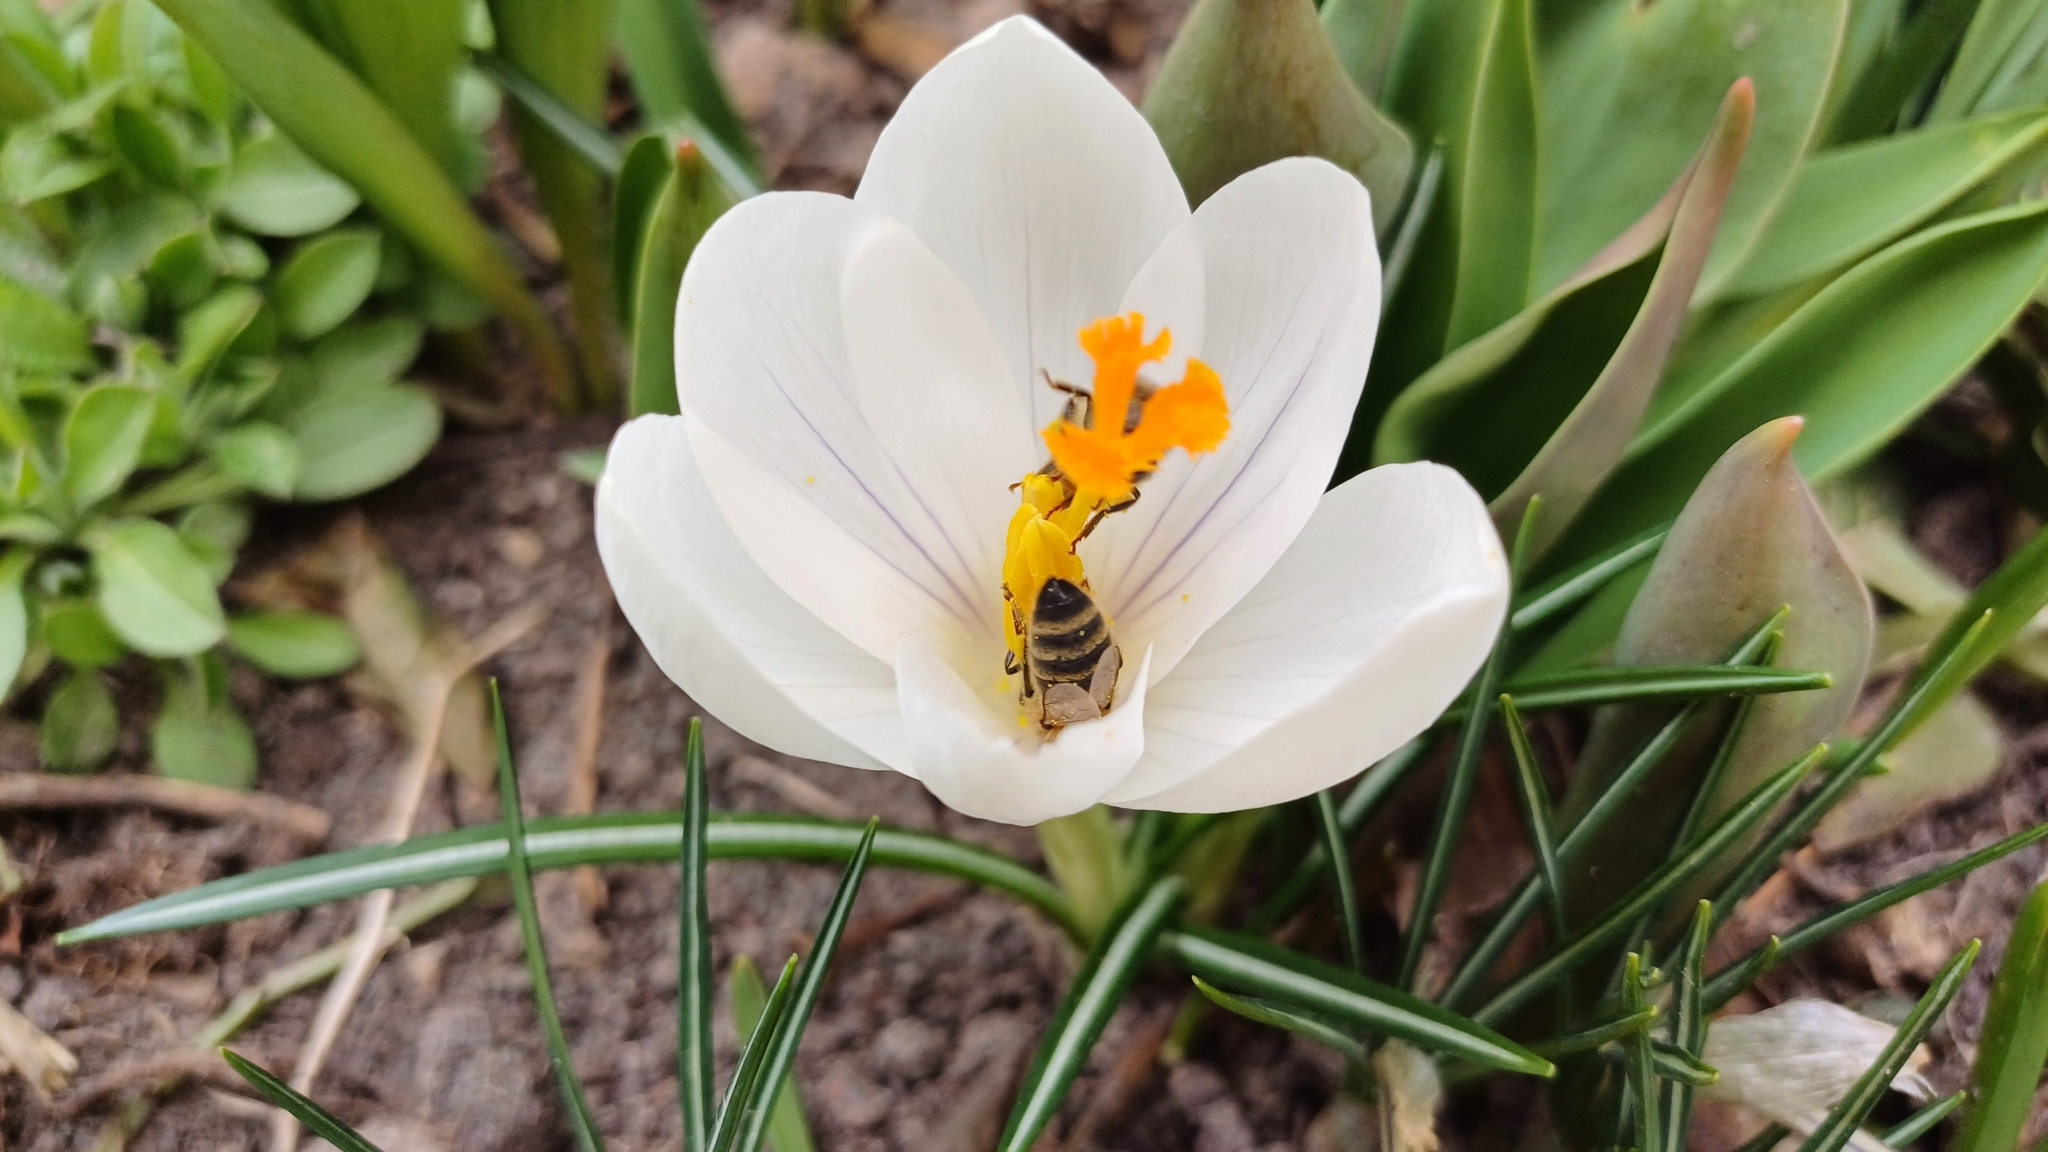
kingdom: Animalia
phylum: Arthropoda
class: Insecta
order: Hymenoptera
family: Apidae
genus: Apis
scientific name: Apis mellifera
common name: Honey bee
